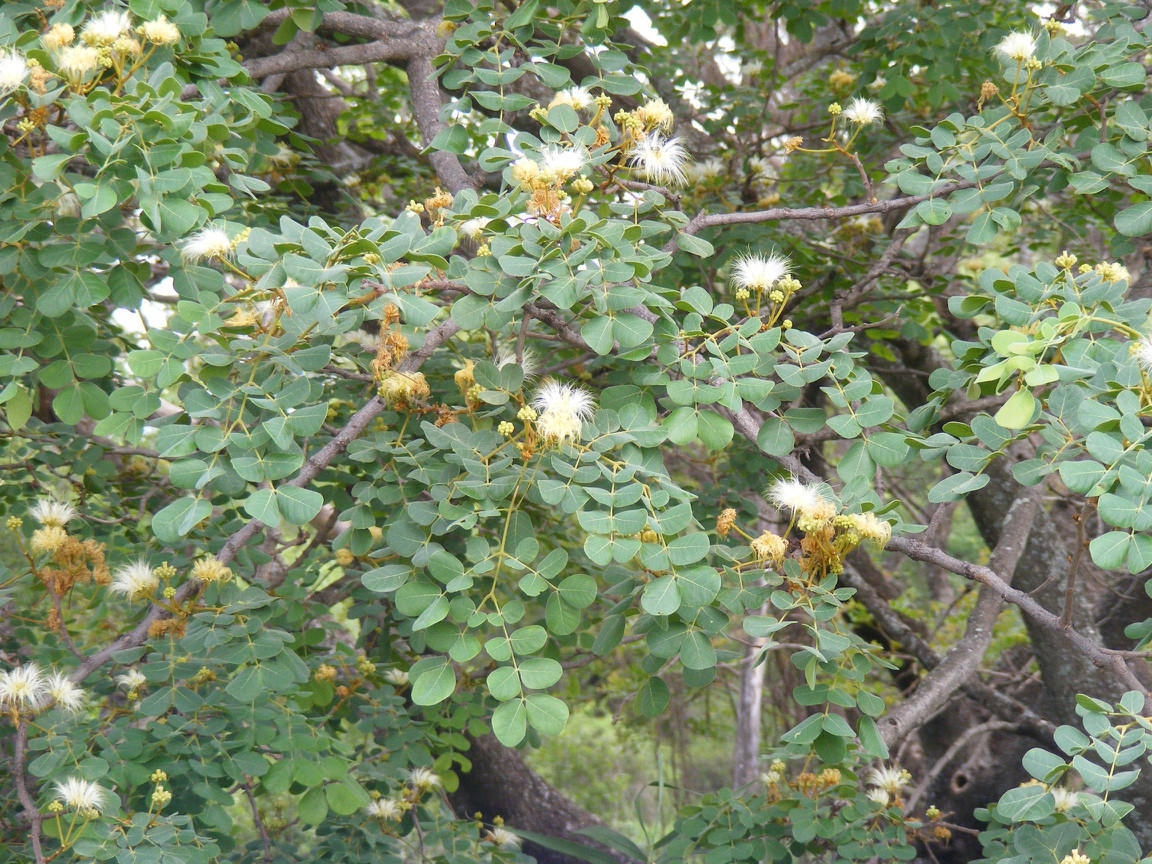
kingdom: Plantae
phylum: Tracheophyta
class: Magnoliopsida
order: Fabales
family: Fabaceae
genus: Albizia
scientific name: Albizia versicolor
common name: Poisonpod
